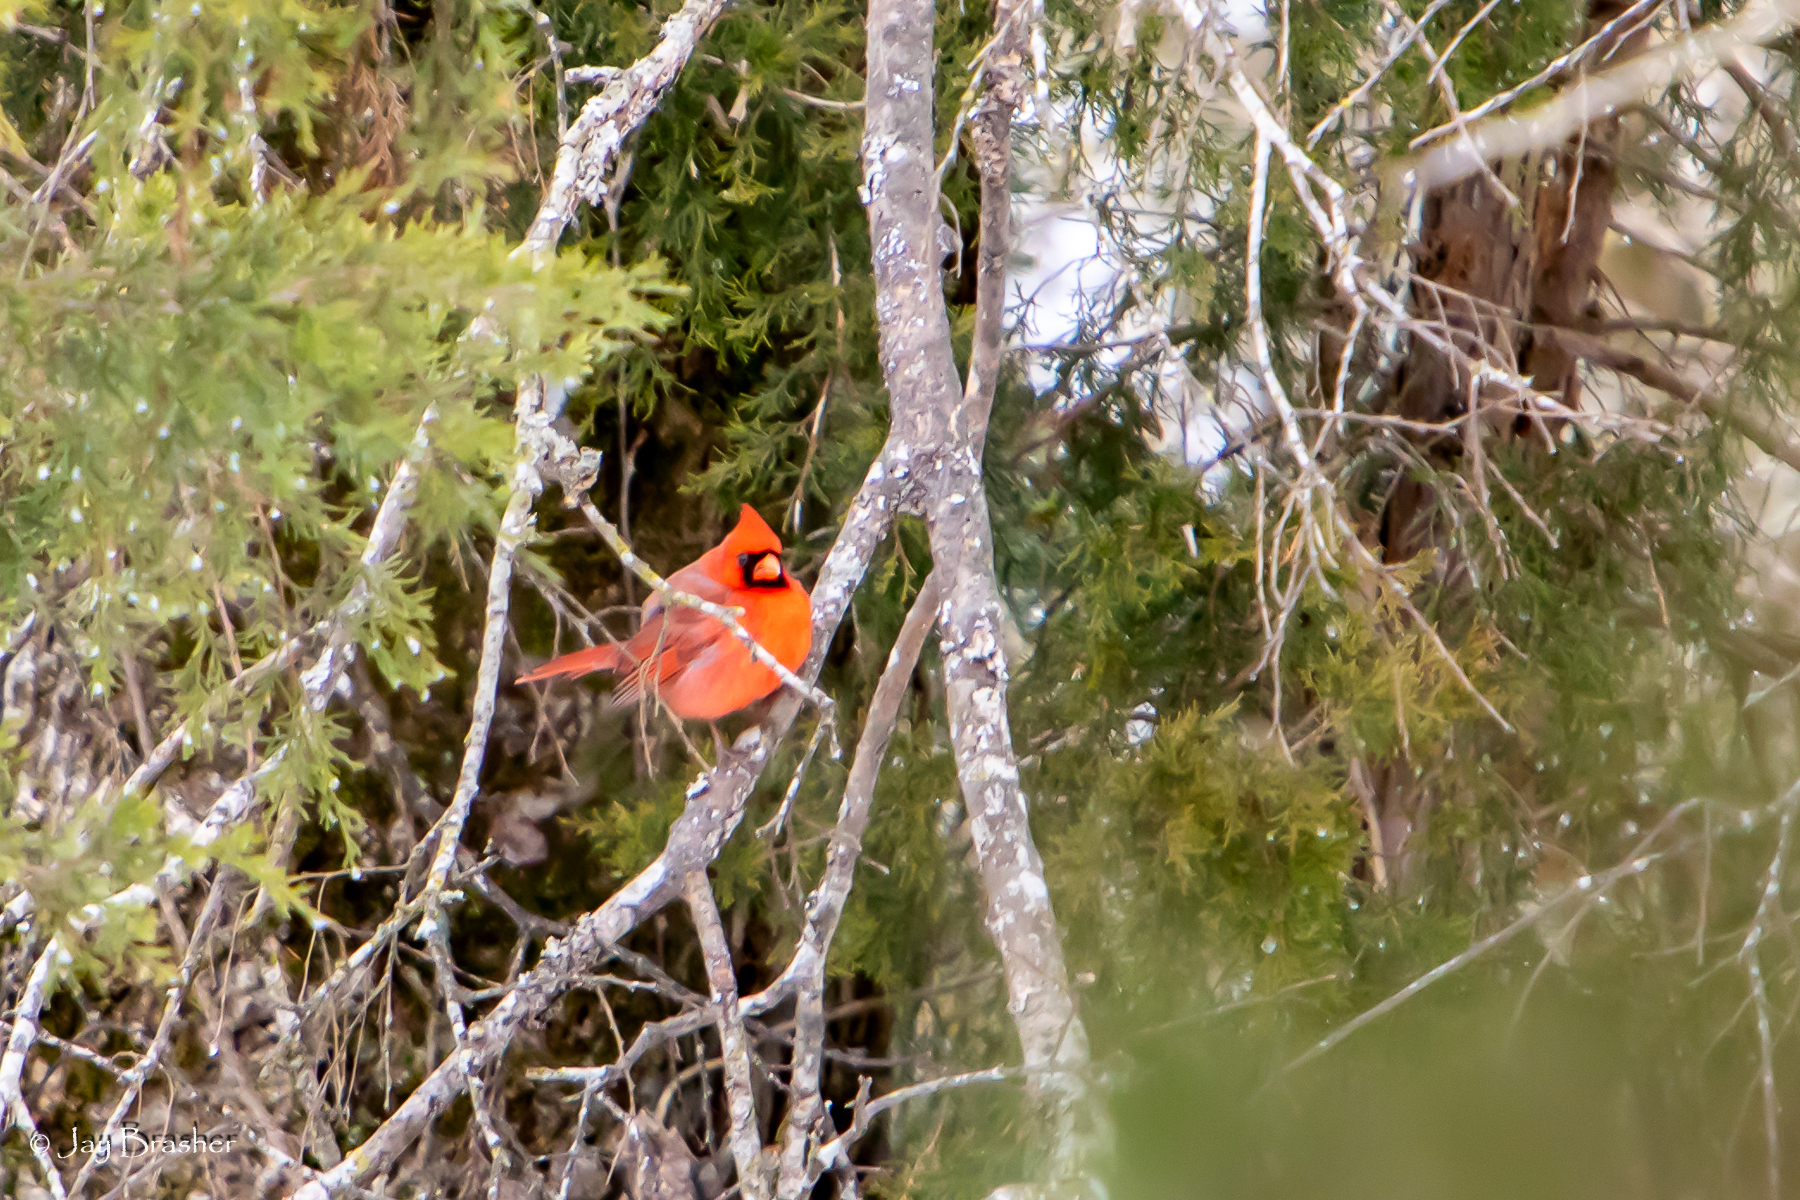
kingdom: Animalia
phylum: Chordata
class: Aves
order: Passeriformes
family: Cardinalidae
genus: Cardinalis
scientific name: Cardinalis cardinalis
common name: Northern cardinal
